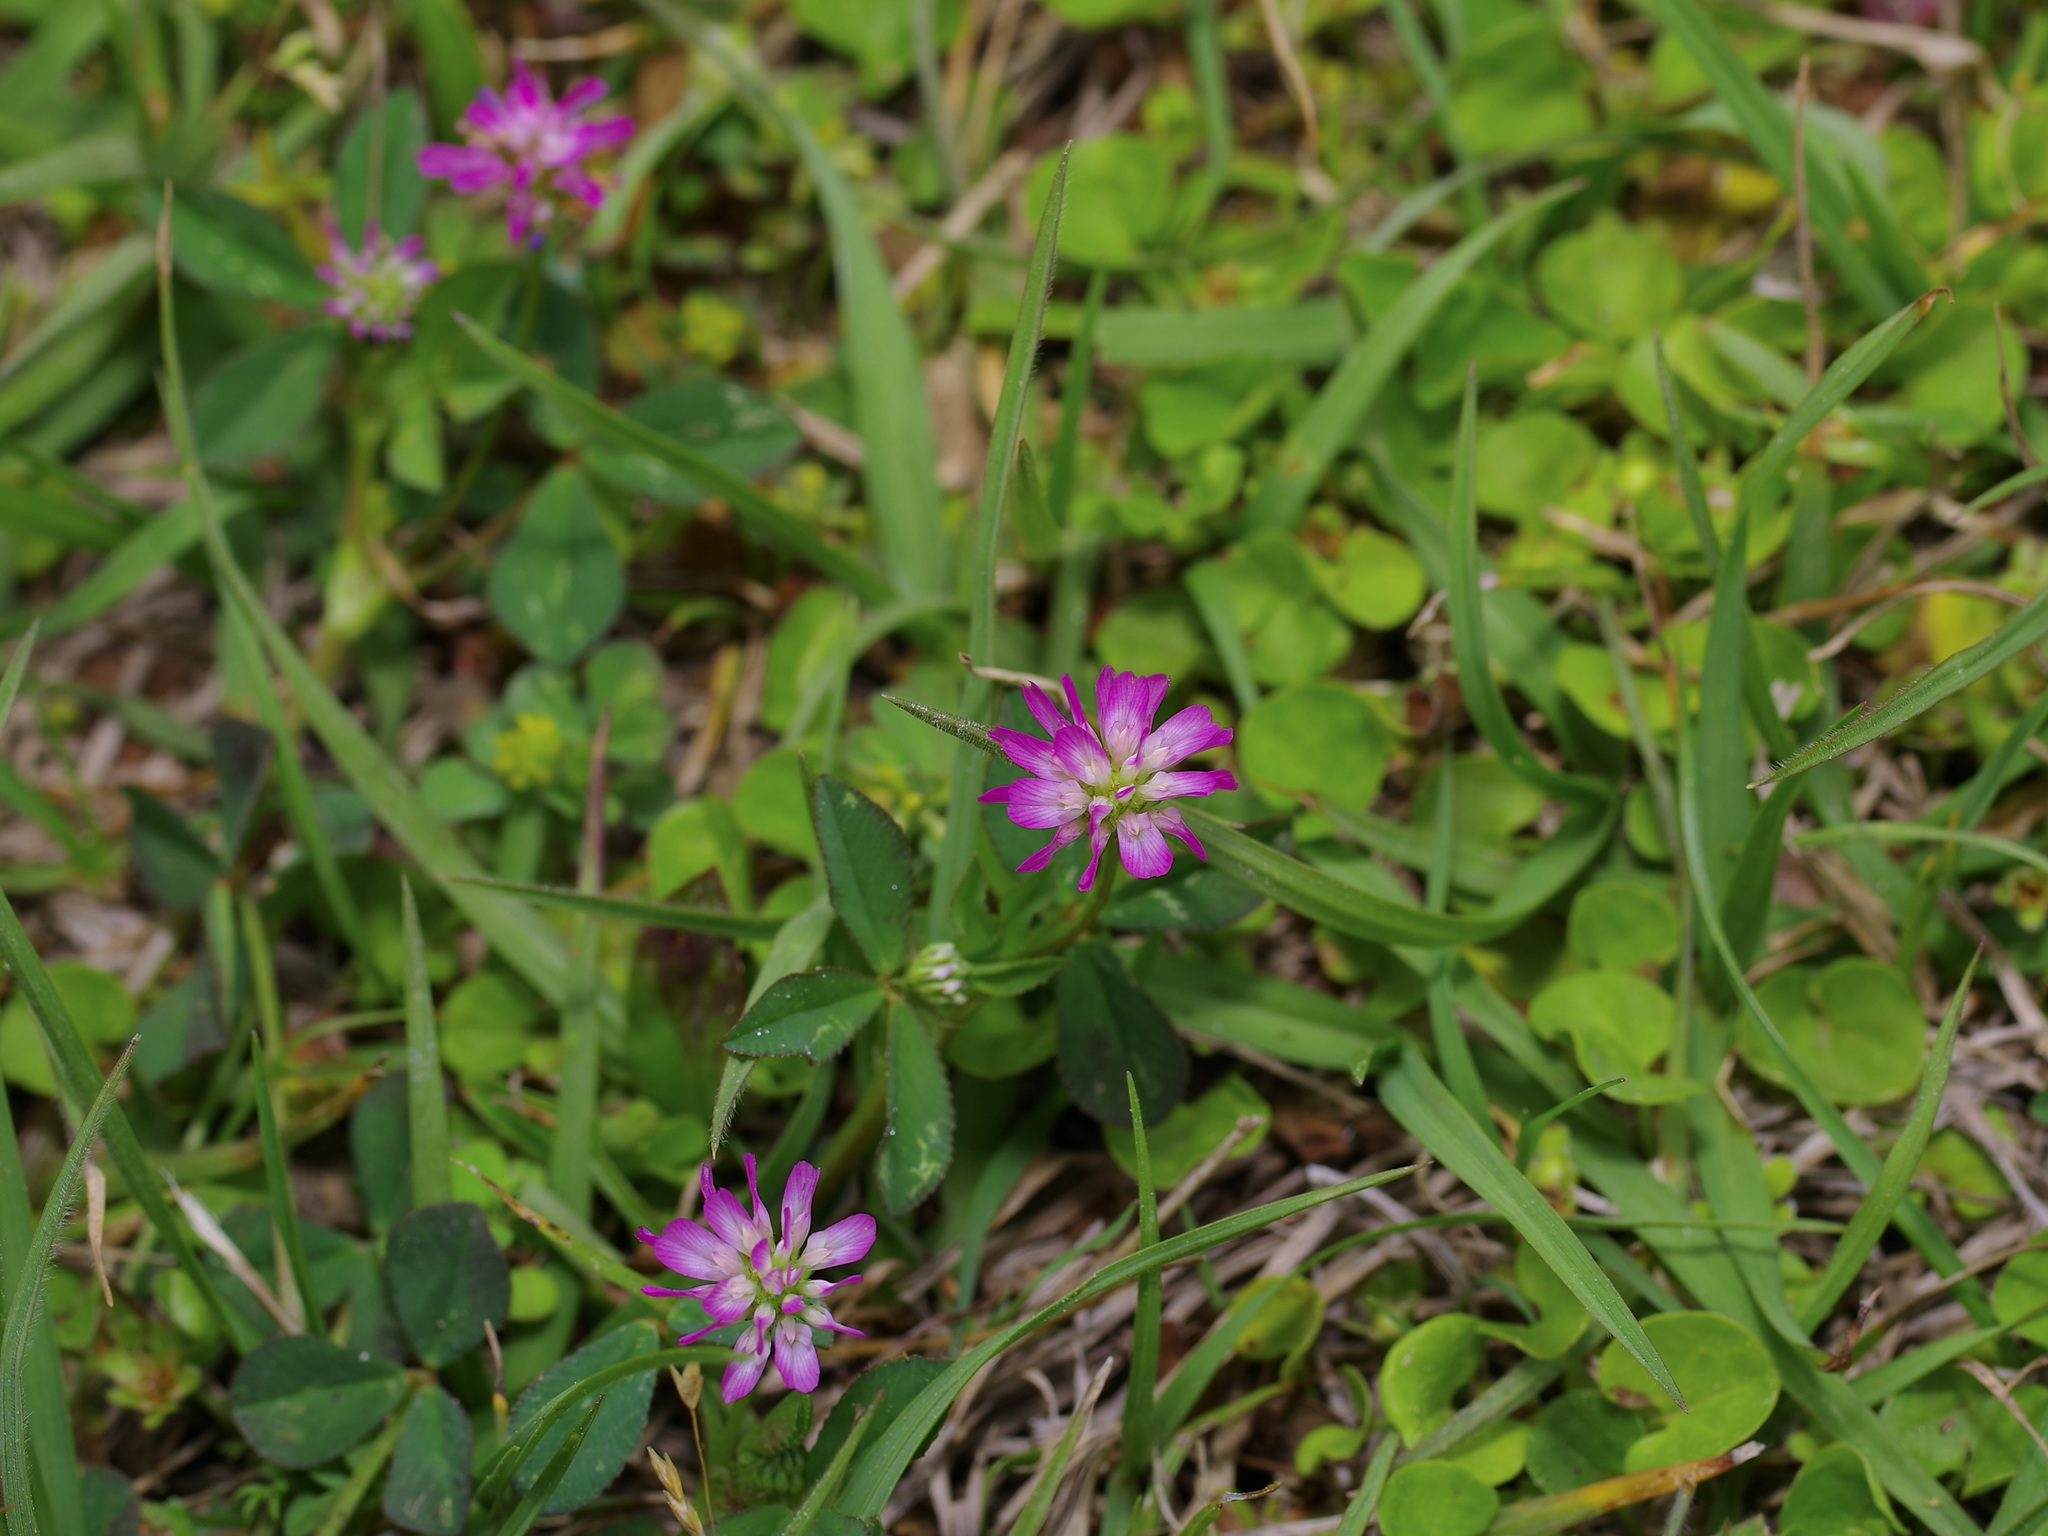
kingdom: Plantae
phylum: Tracheophyta
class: Magnoliopsida
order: Fabales
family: Fabaceae
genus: Trifolium
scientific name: Trifolium resupinatum
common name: Reversed clover
